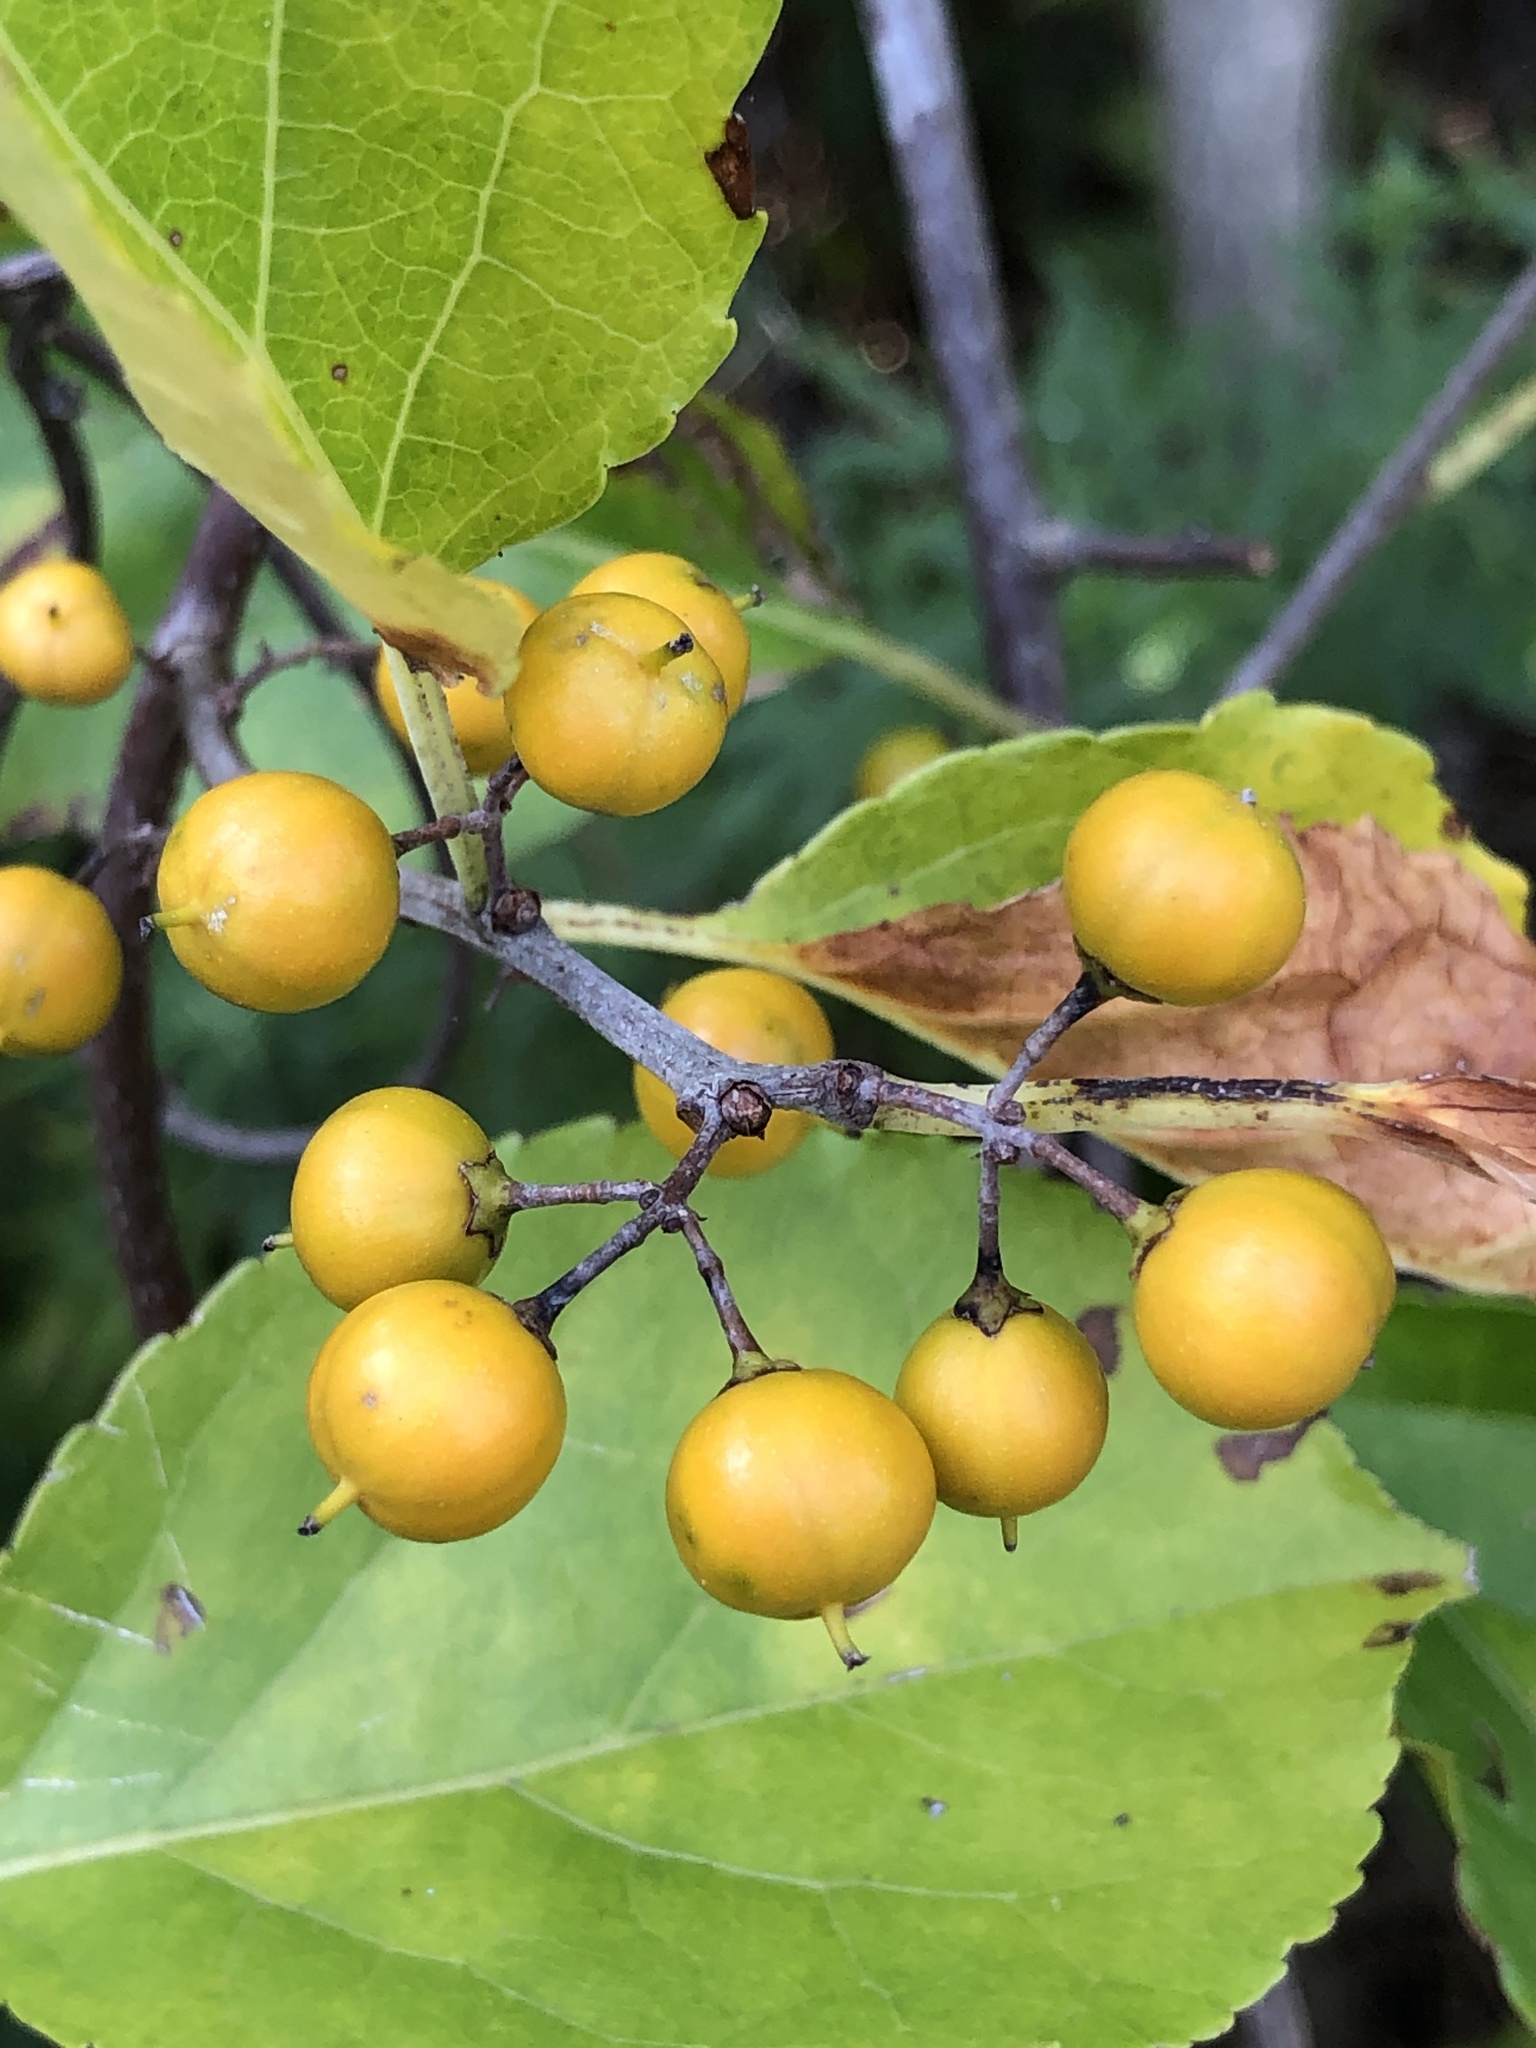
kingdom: Plantae
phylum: Tracheophyta
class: Magnoliopsida
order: Celastrales
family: Celastraceae
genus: Celastrus
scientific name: Celastrus orbiculatus
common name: Oriental bittersweet
